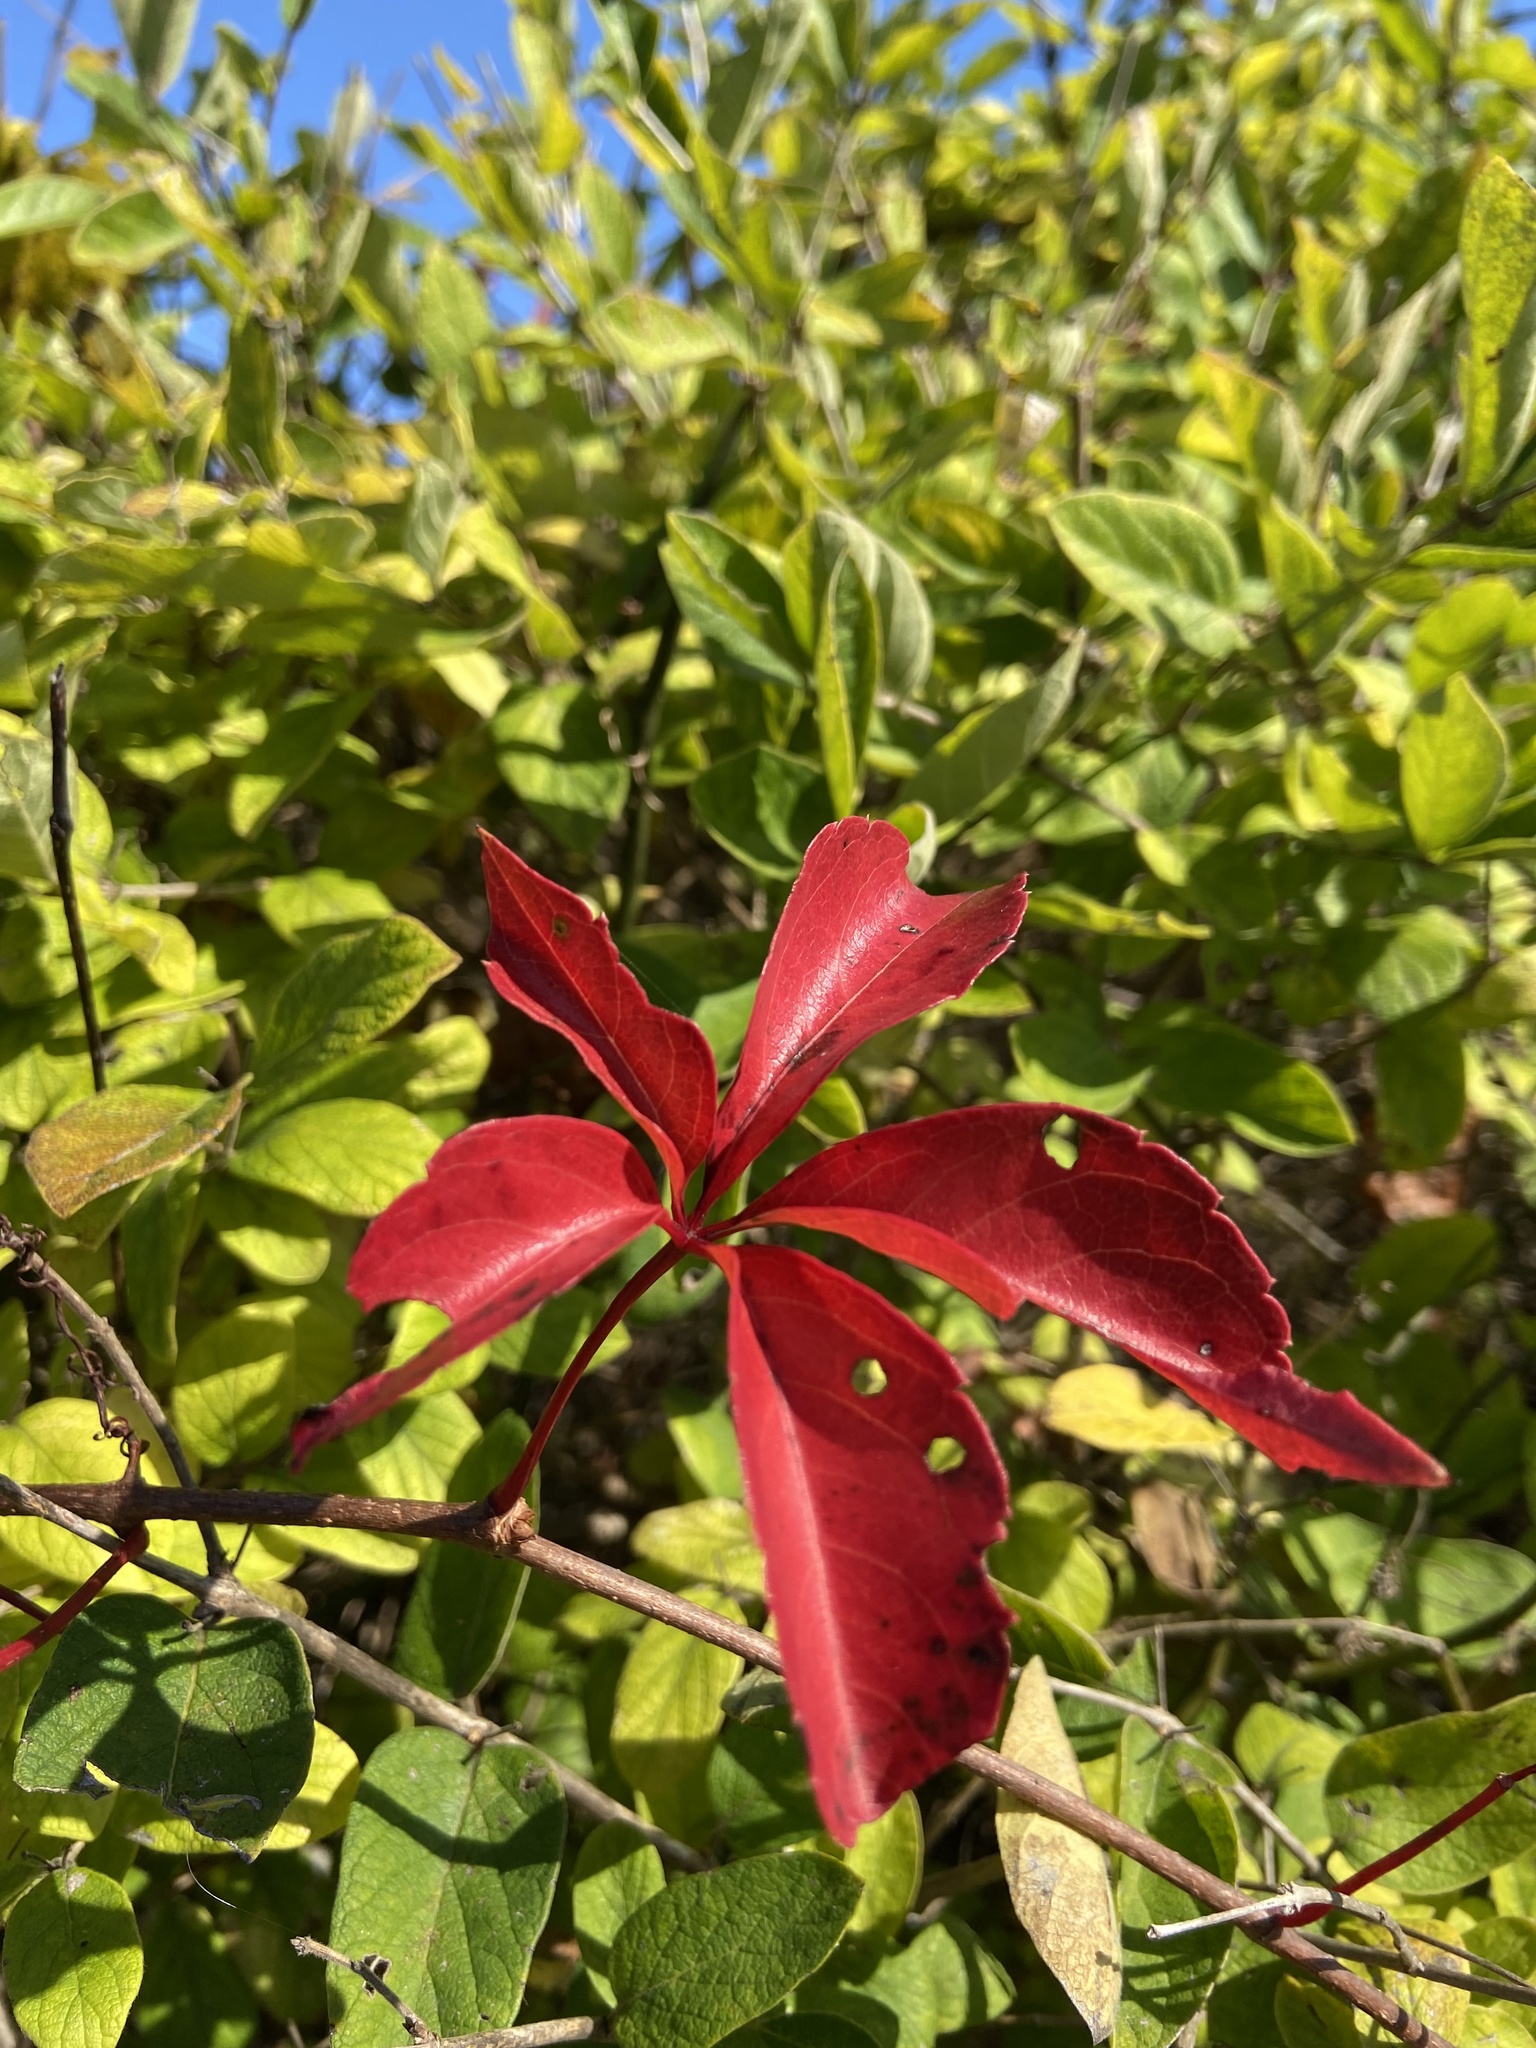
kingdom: Plantae
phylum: Tracheophyta
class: Magnoliopsida
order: Vitales
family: Vitaceae
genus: Parthenocissus
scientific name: Parthenocissus quinquefolia
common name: Virginia-creeper
